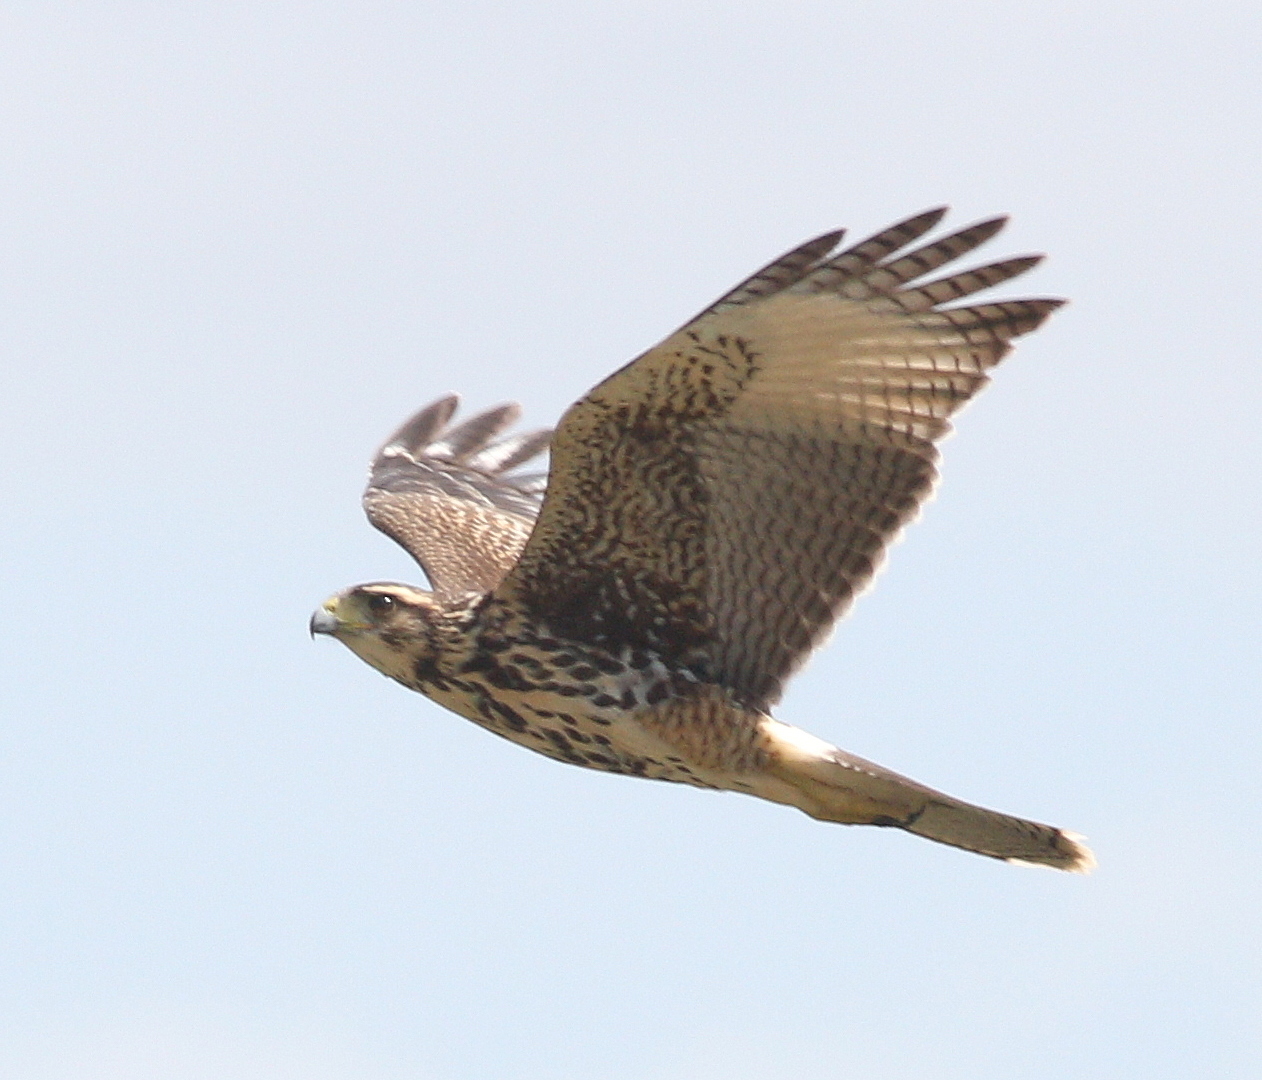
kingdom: Animalia
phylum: Chordata
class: Aves
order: Accipitriformes
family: Accipitridae
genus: Parabuteo
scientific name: Parabuteo unicinctus
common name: Harris's hawk
